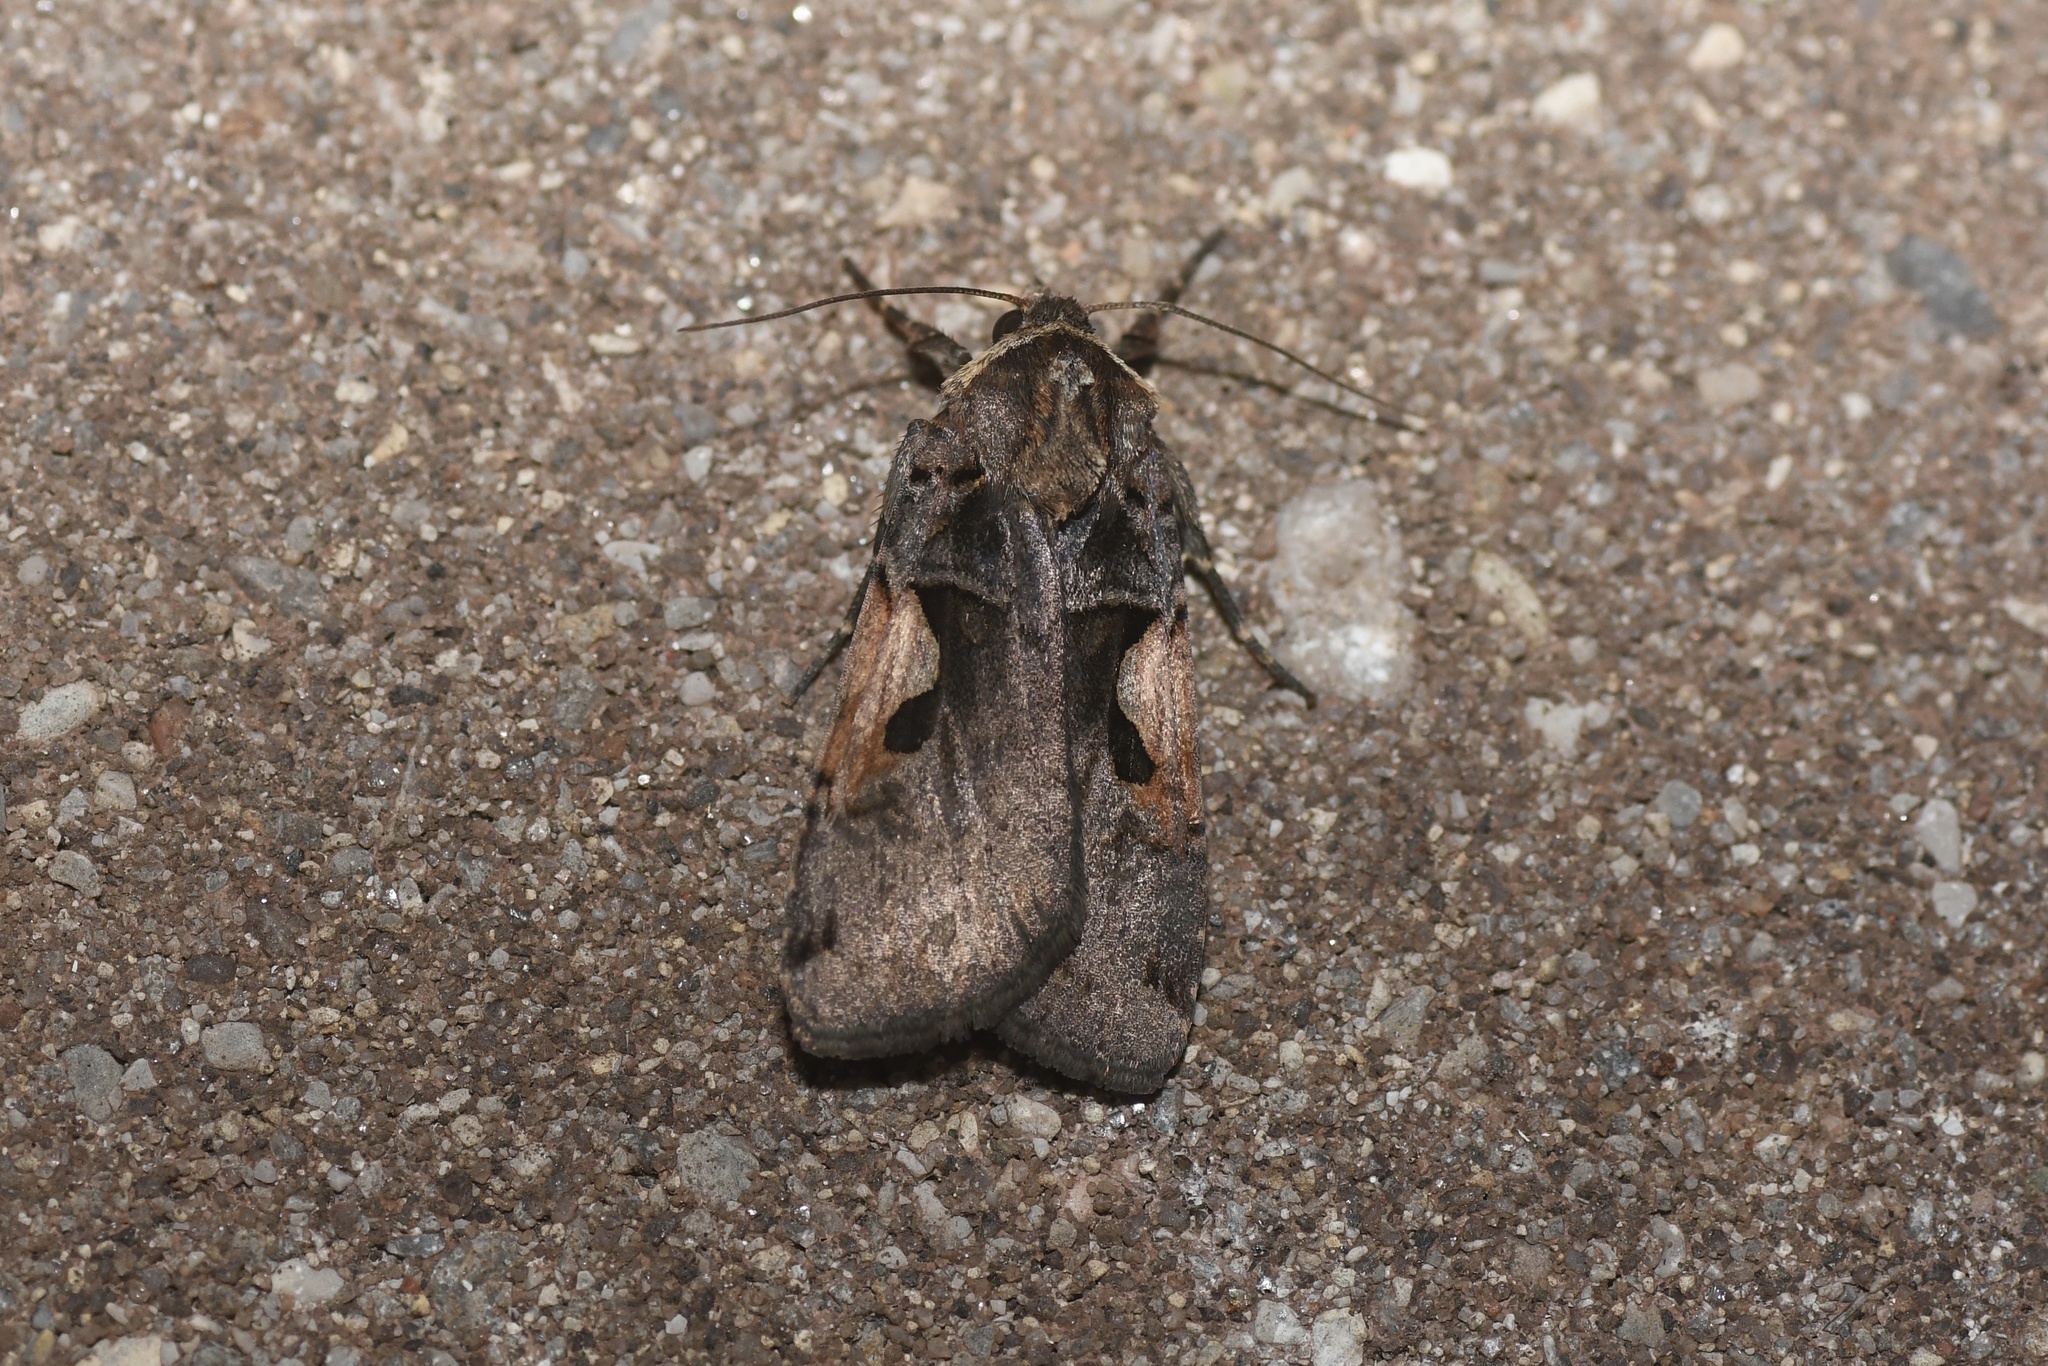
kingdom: Animalia
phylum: Arthropoda
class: Insecta
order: Lepidoptera
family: Noctuidae
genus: Xestia
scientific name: Xestia
